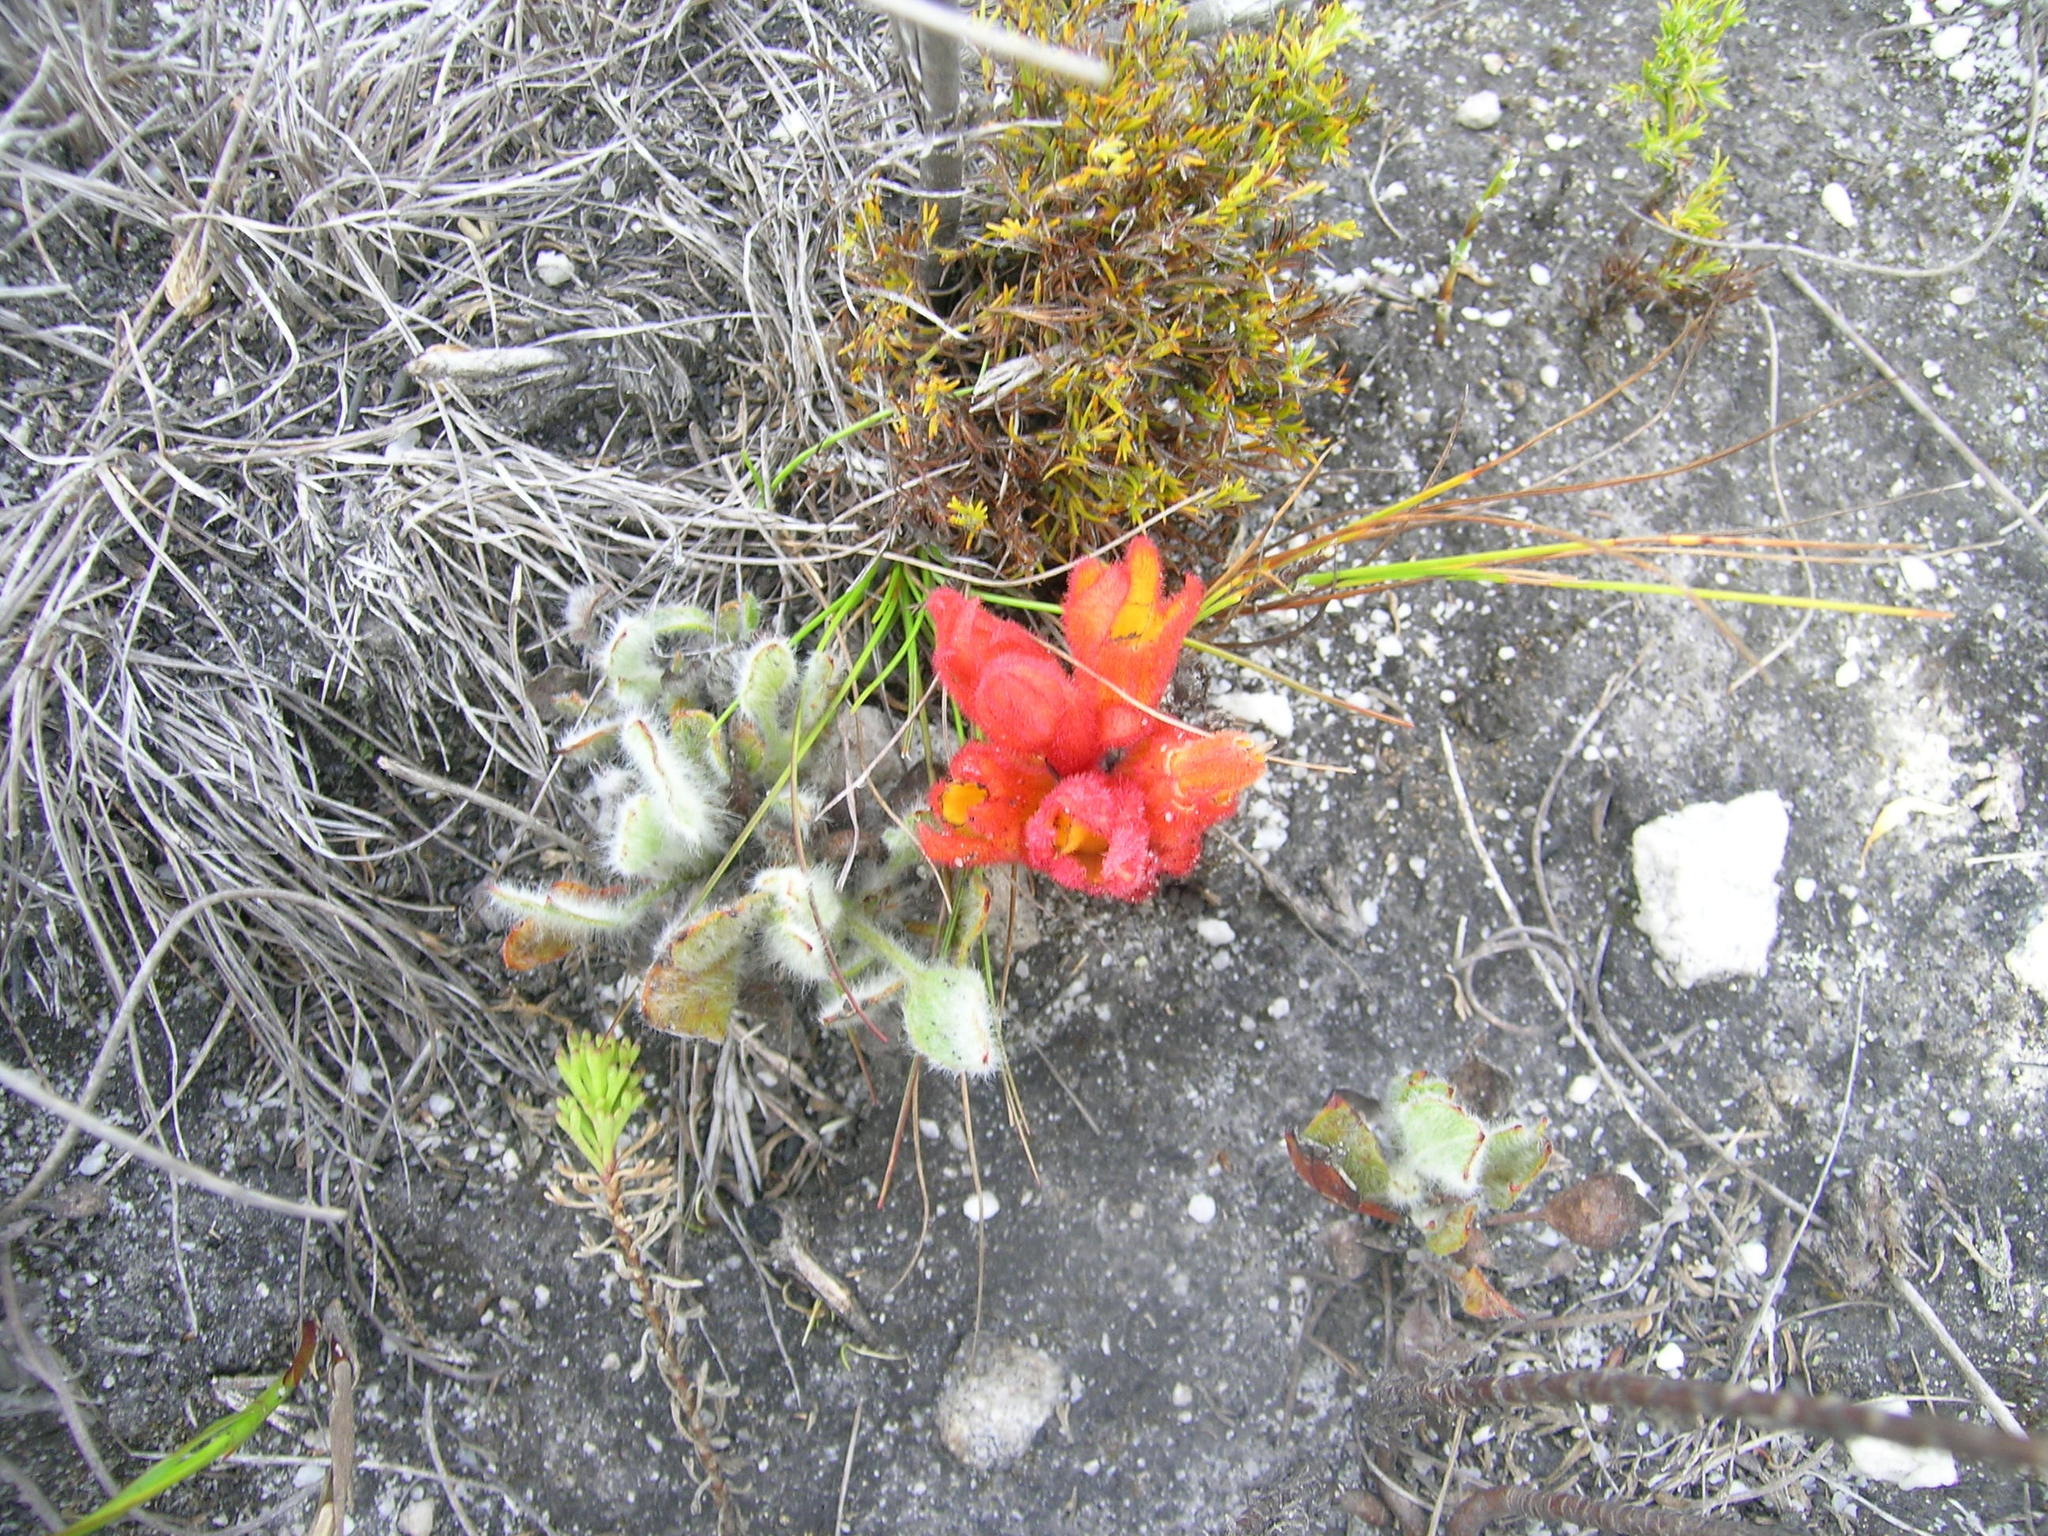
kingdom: Plantae
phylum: Tracheophyta
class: Magnoliopsida
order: Lamiales
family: Orobanchaceae
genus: Harveya
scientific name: Harveya bolusii
